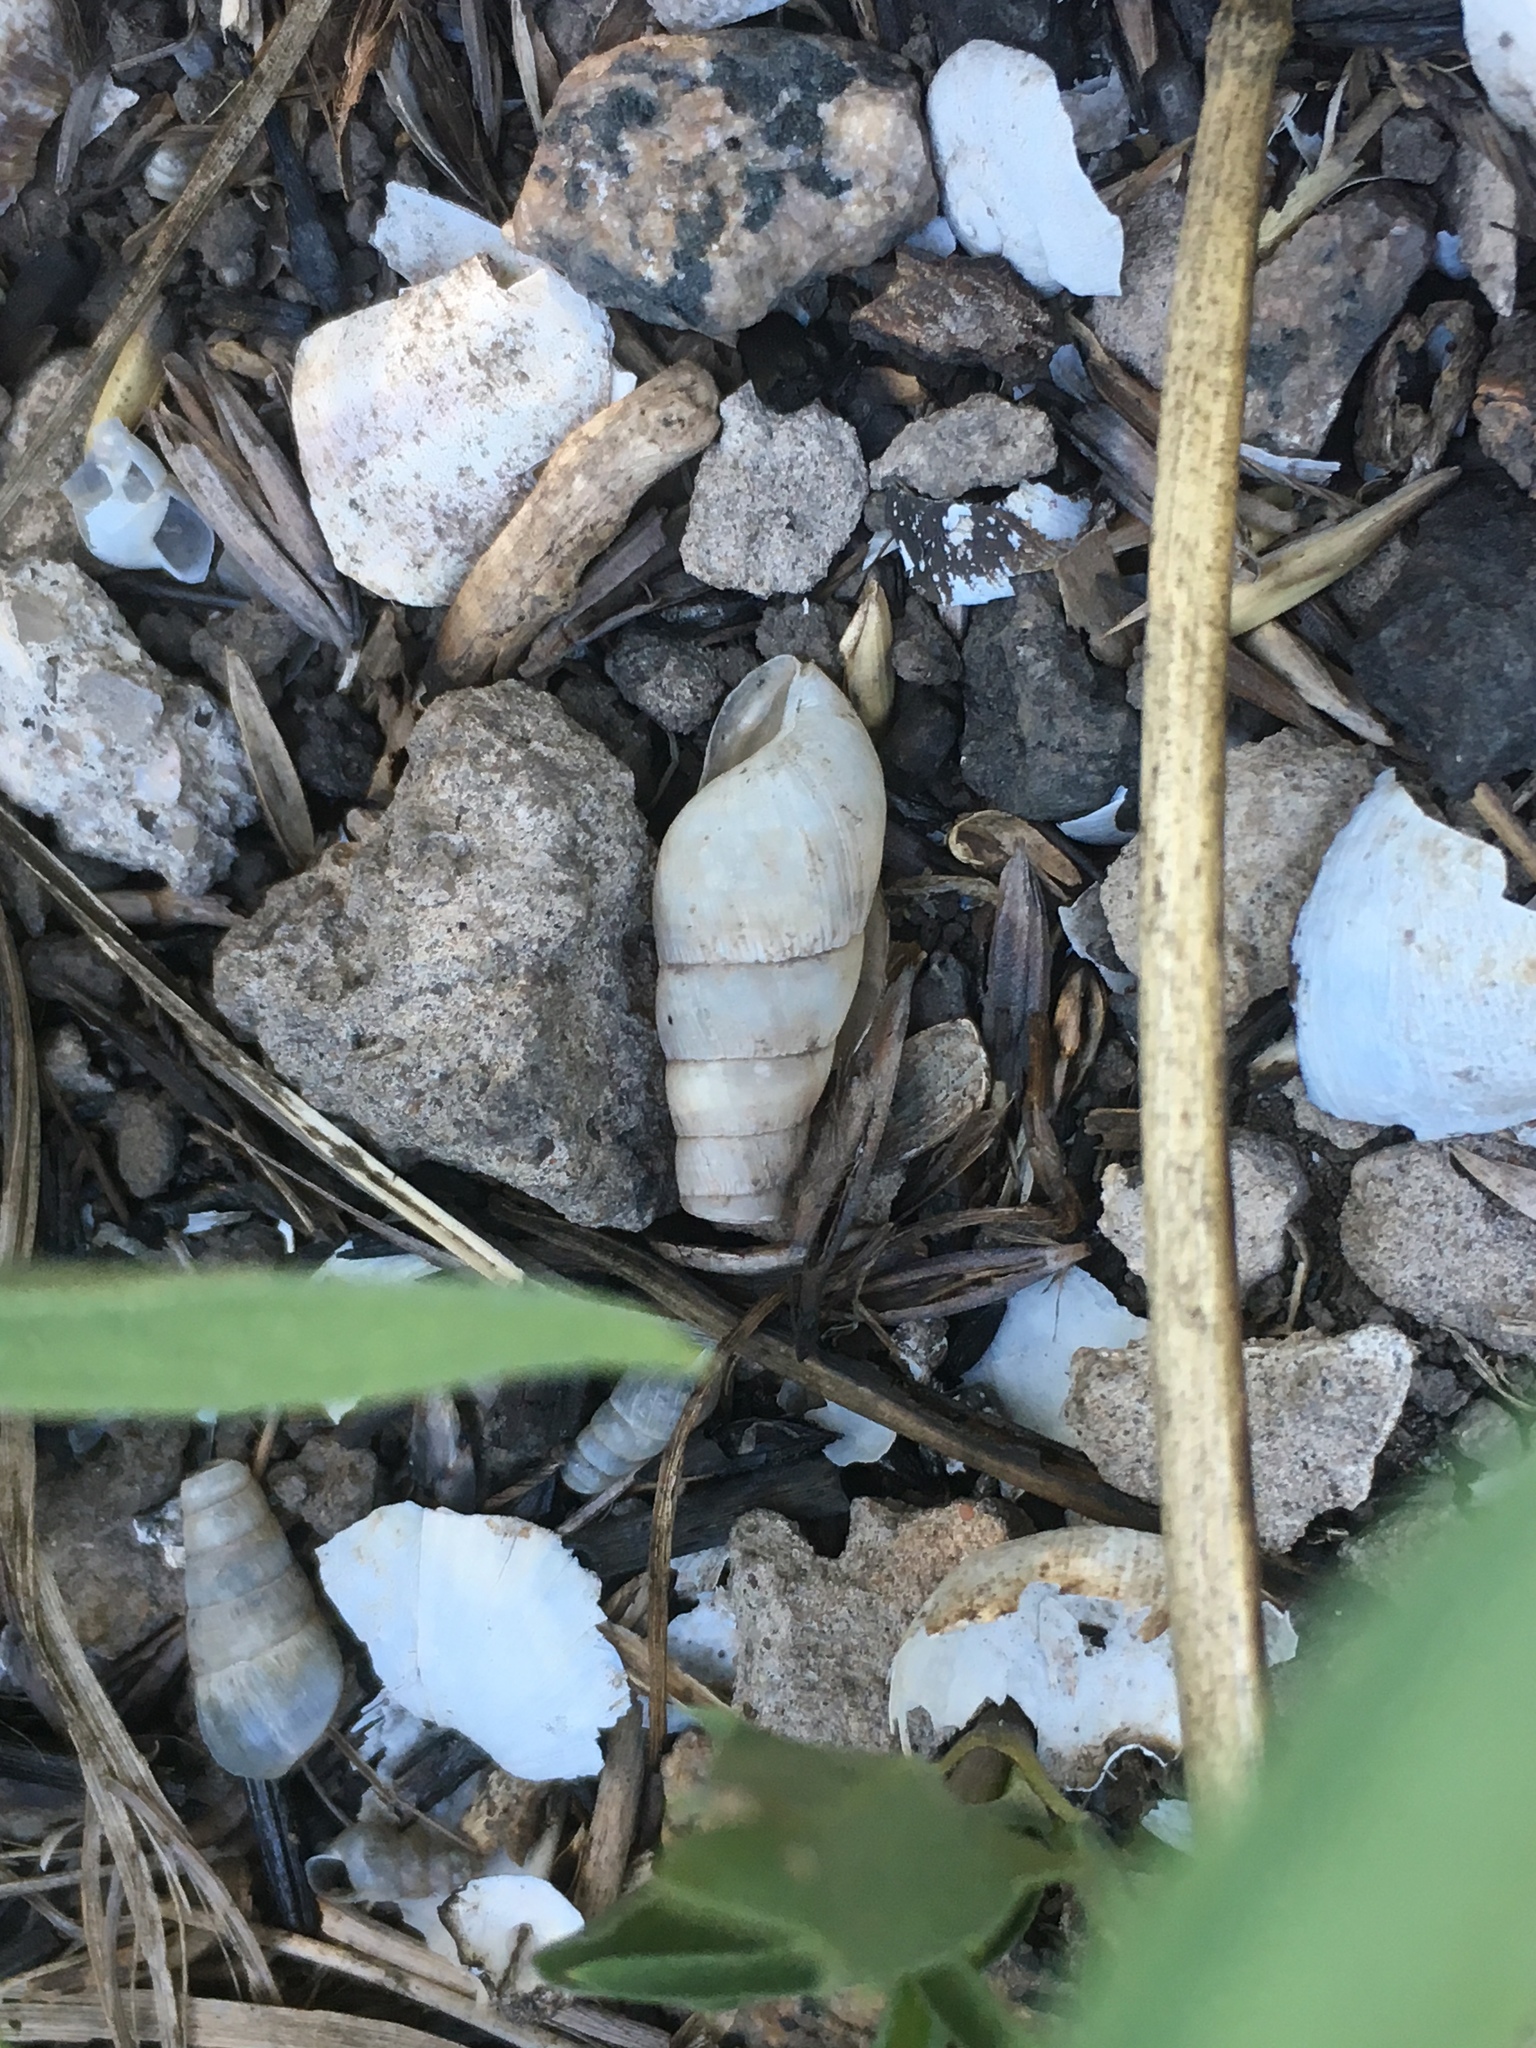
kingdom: Animalia
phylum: Mollusca
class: Gastropoda
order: Stylommatophora
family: Achatinidae
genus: Rumina
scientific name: Rumina decollata
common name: Decollate snail
